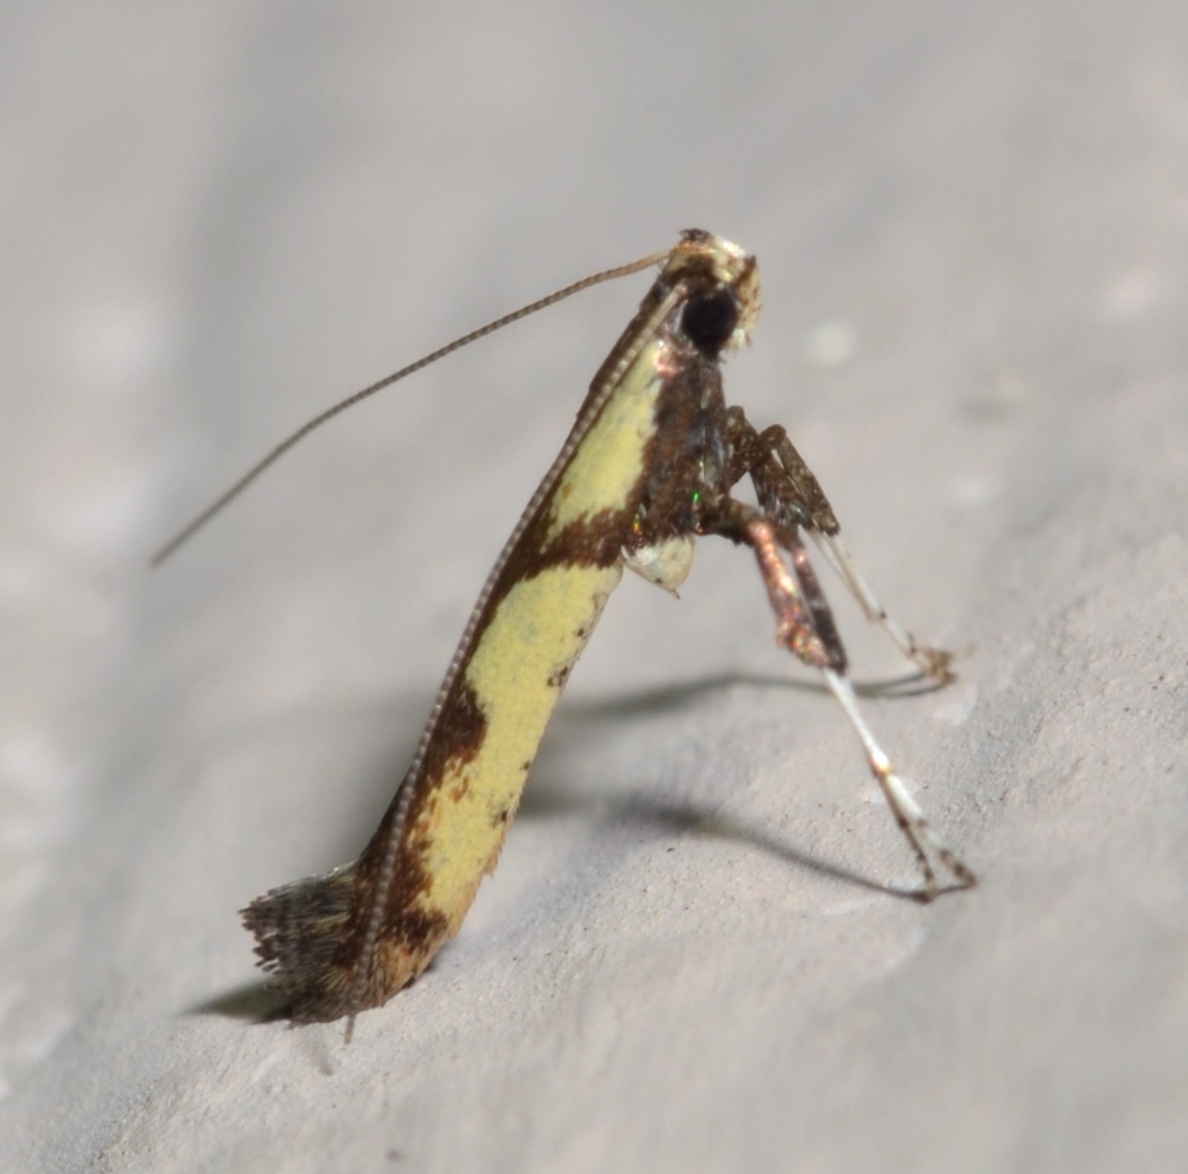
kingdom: Animalia
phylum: Arthropoda
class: Insecta
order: Lepidoptera
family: Gracillariidae
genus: Caloptilia
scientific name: Caloptilia blandella
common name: Walnut caloptilia moth
